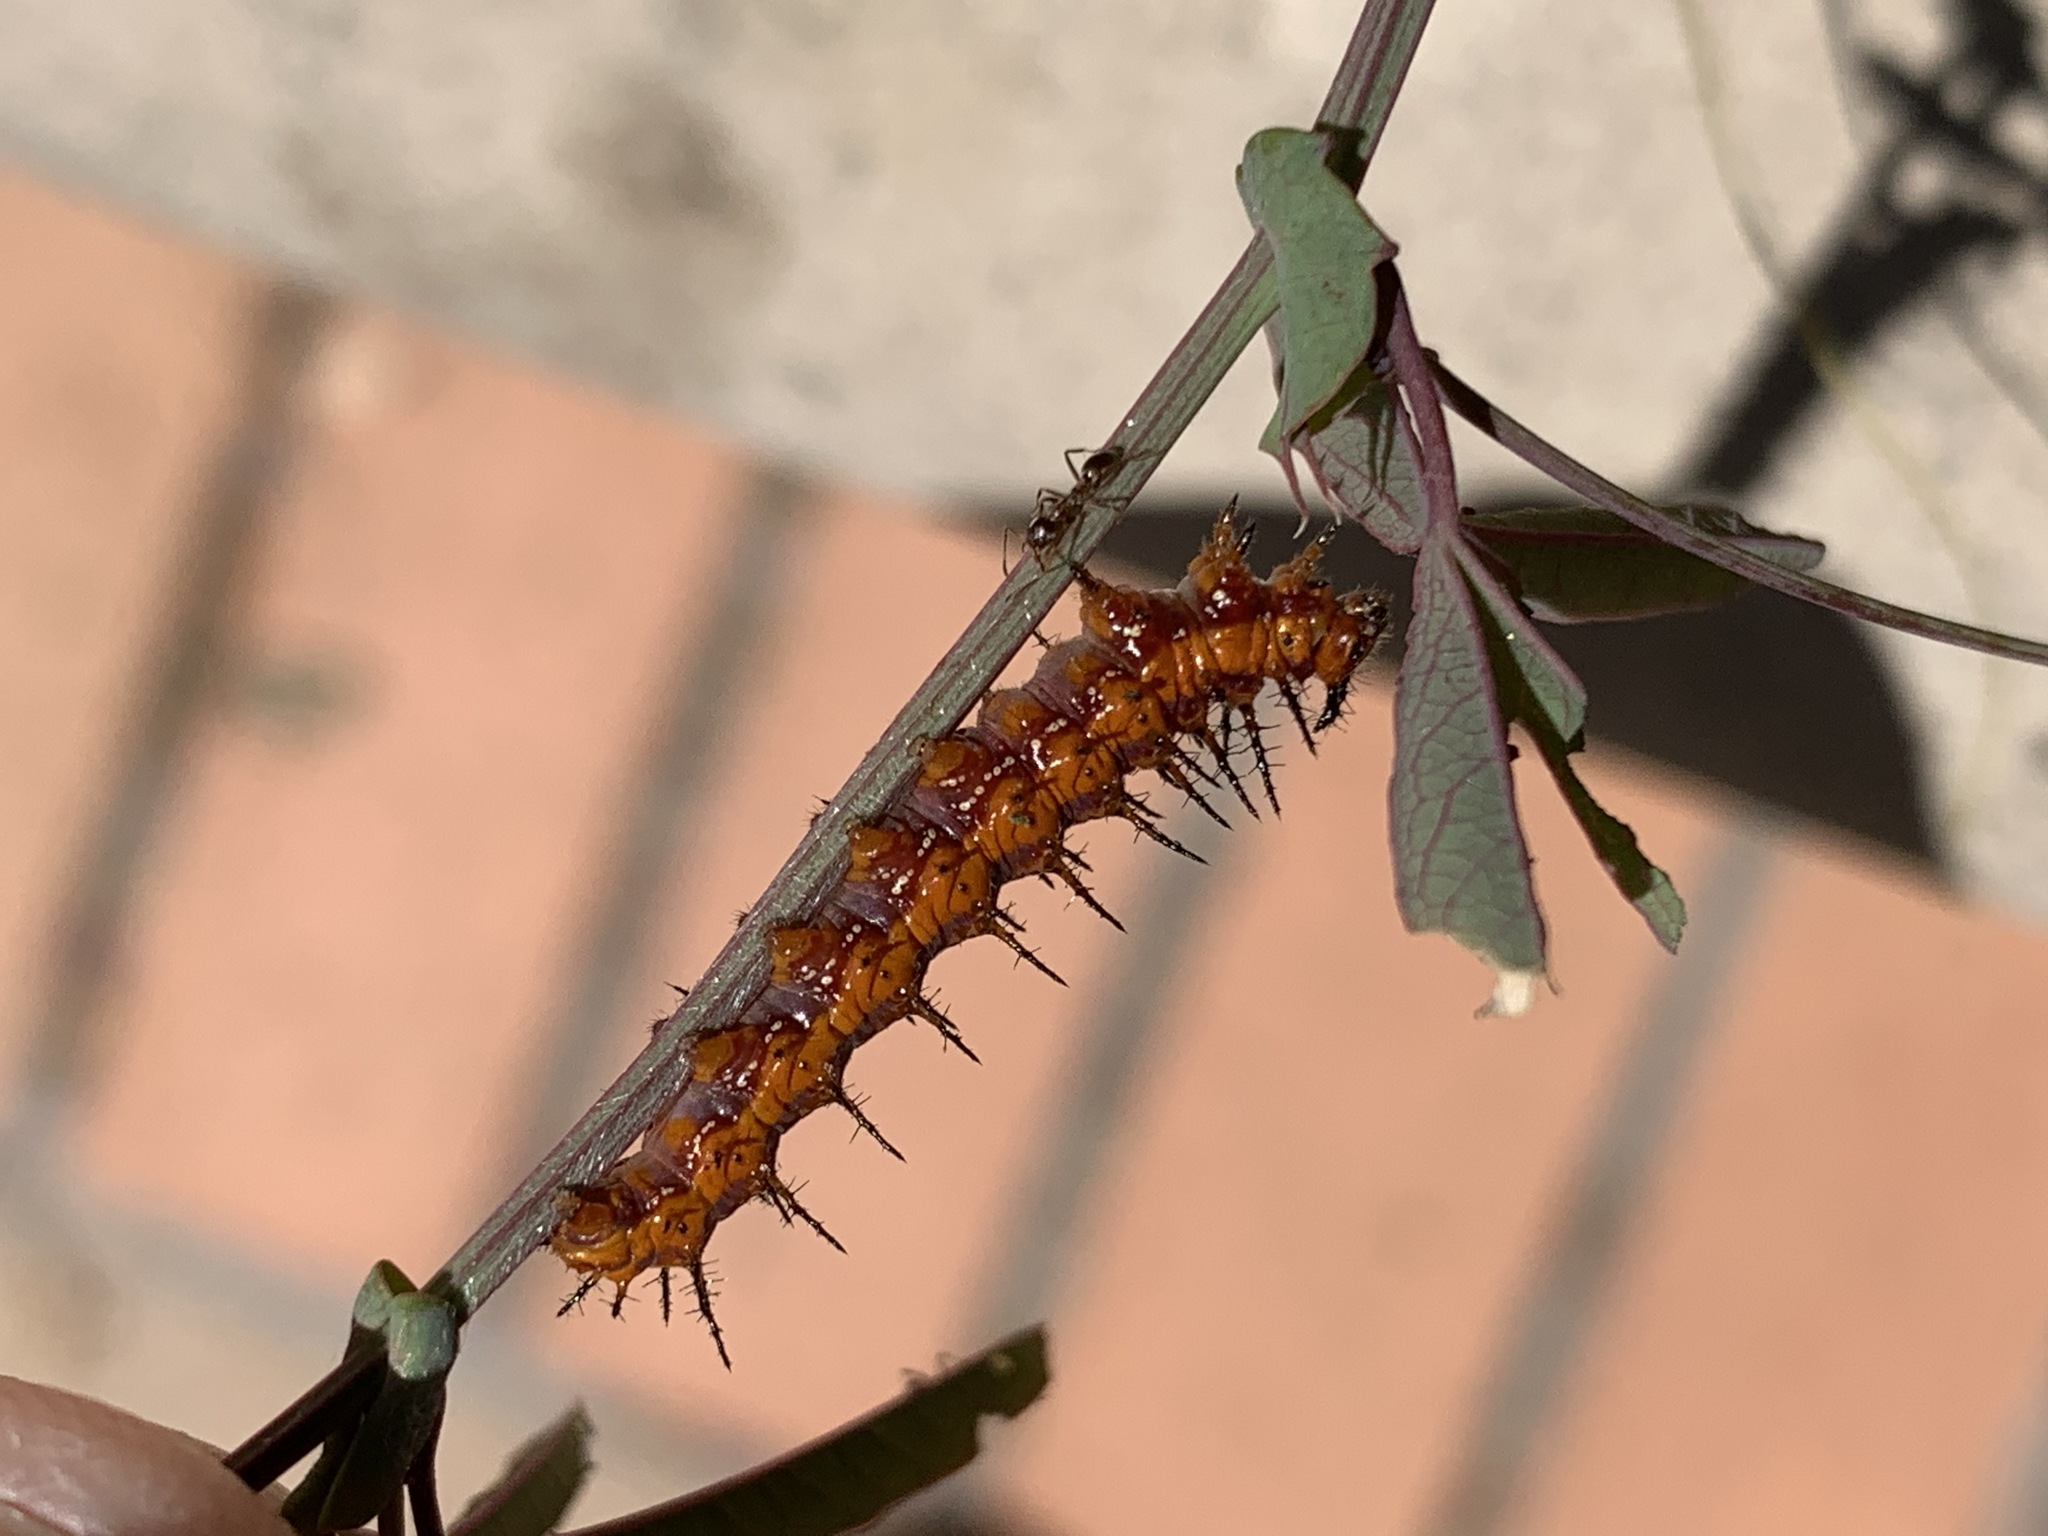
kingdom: Animalia
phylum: Arthropoda
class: Insecta
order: Lepidoptera
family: Nymphalidae
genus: Dione
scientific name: Dione vanillae
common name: Gulf fritillary
